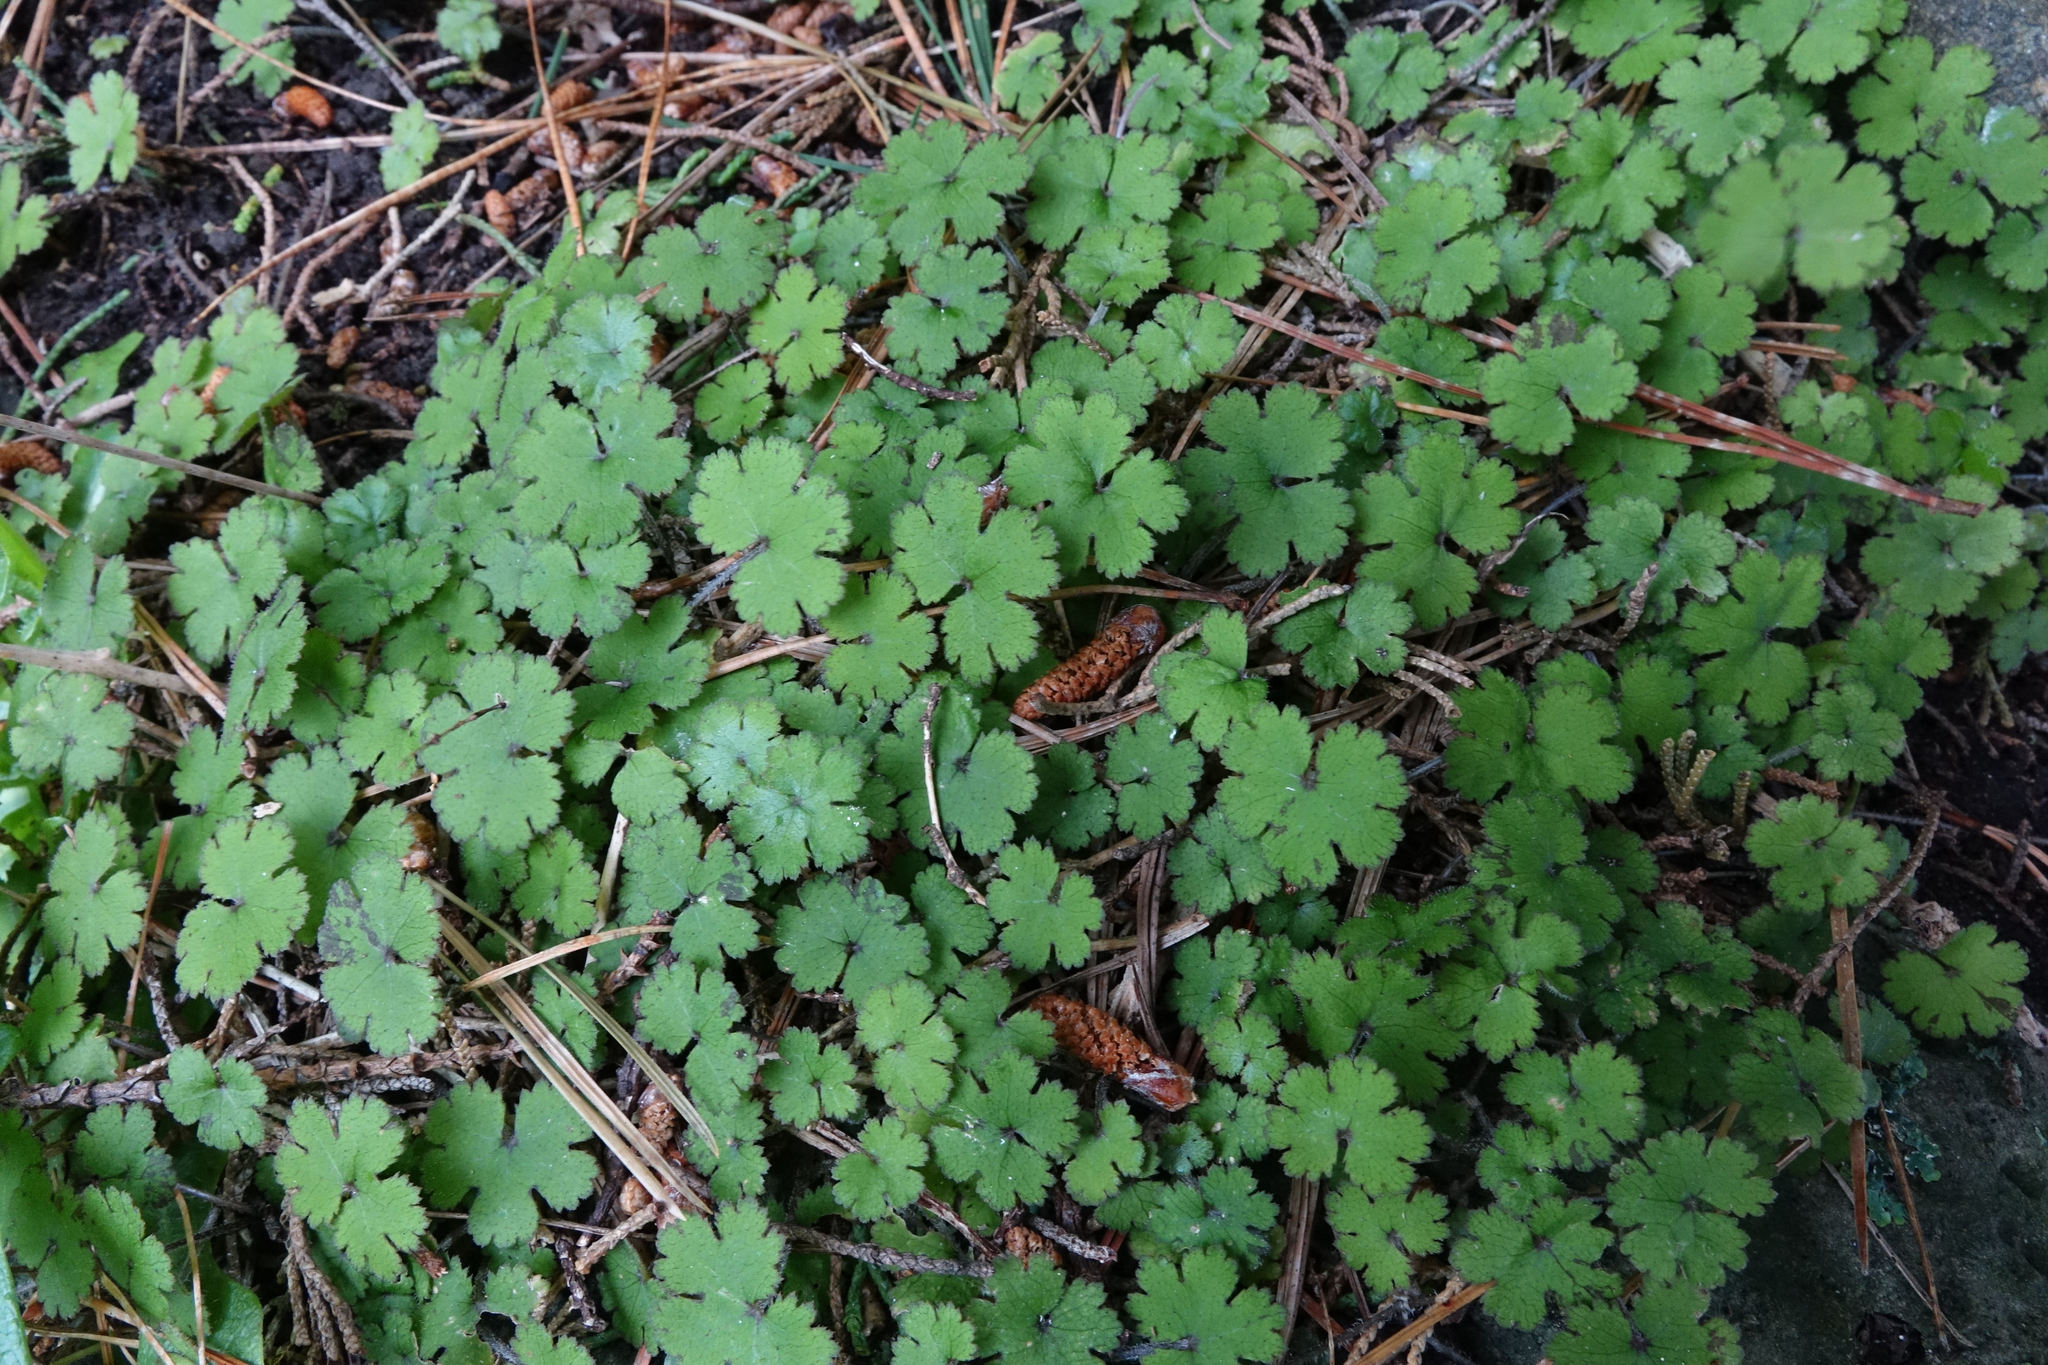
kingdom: Plantae
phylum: Tracheophyta
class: Magnoliopsida
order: Apiales
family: Araliaceae
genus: Hydrocotyle
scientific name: Hydrocotyle elongata
